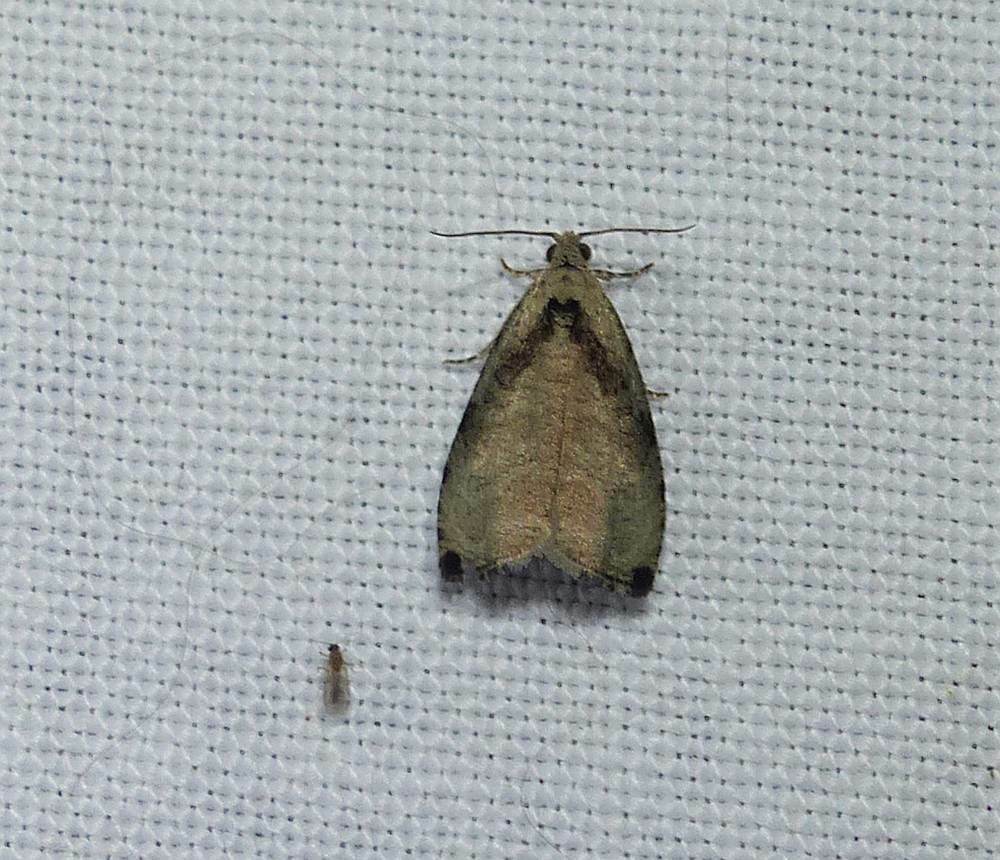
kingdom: Animalia
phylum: Arthropoda
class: Insecta
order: Lepidoptera
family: Tortricidae
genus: Olethreutes
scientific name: Olethreutes exoletum
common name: Wretched olethreutes moth
